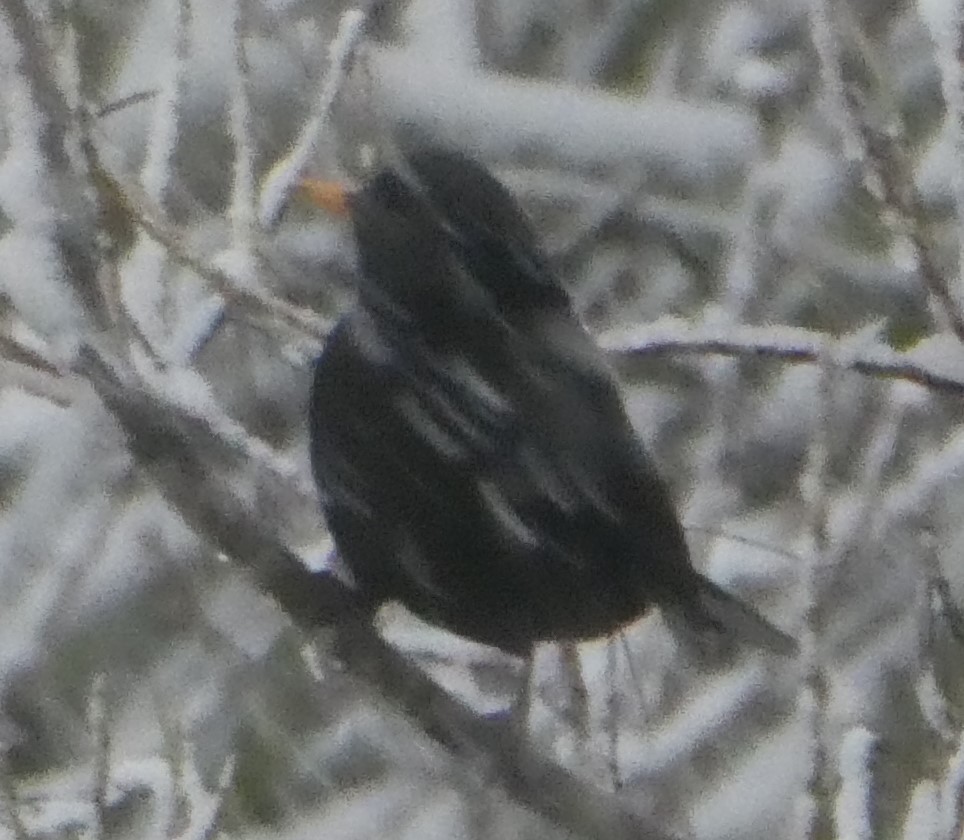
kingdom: Animalia
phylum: Chordata
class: Aves
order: Passeriformes
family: Turdidae
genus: Turdus
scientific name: Turdus merula
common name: Common blackbird
